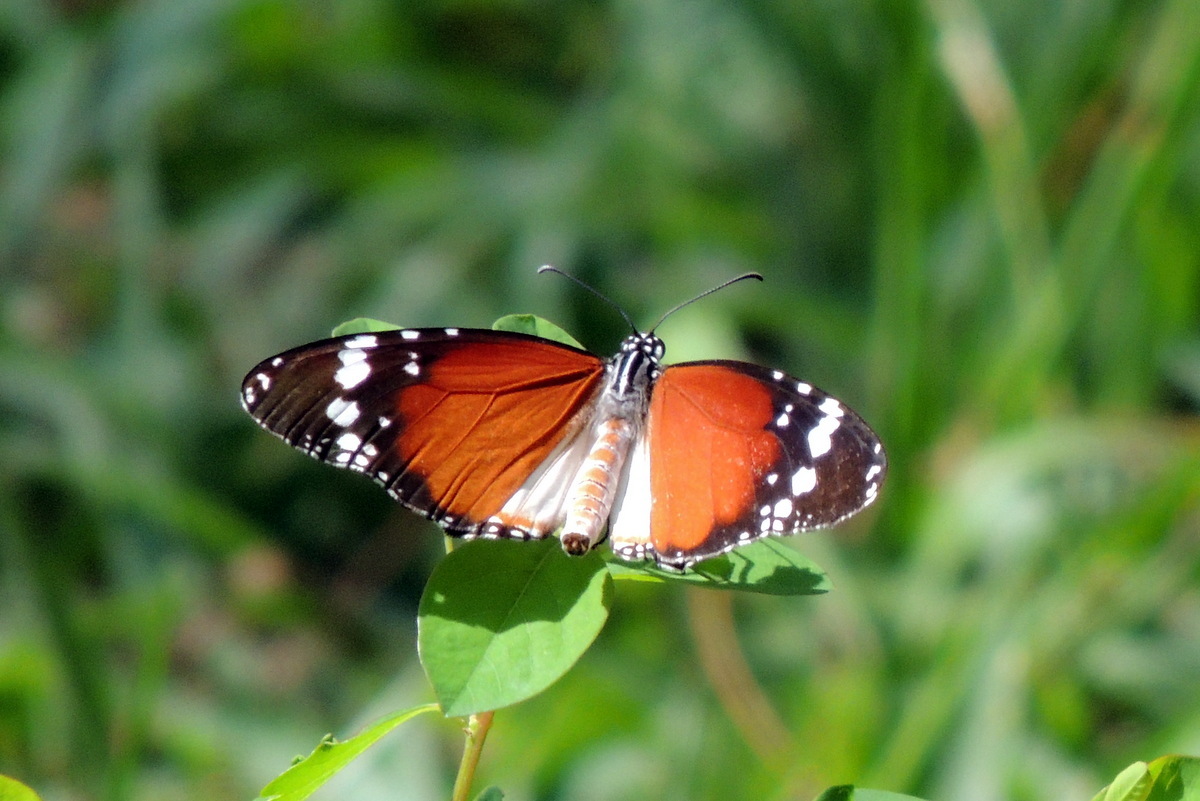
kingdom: Animalia
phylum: Arthropoda
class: Insecta
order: Lepidoptera
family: Nymphalidae
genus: Danaus
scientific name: Danaus chrysippus
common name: Plain tiger
